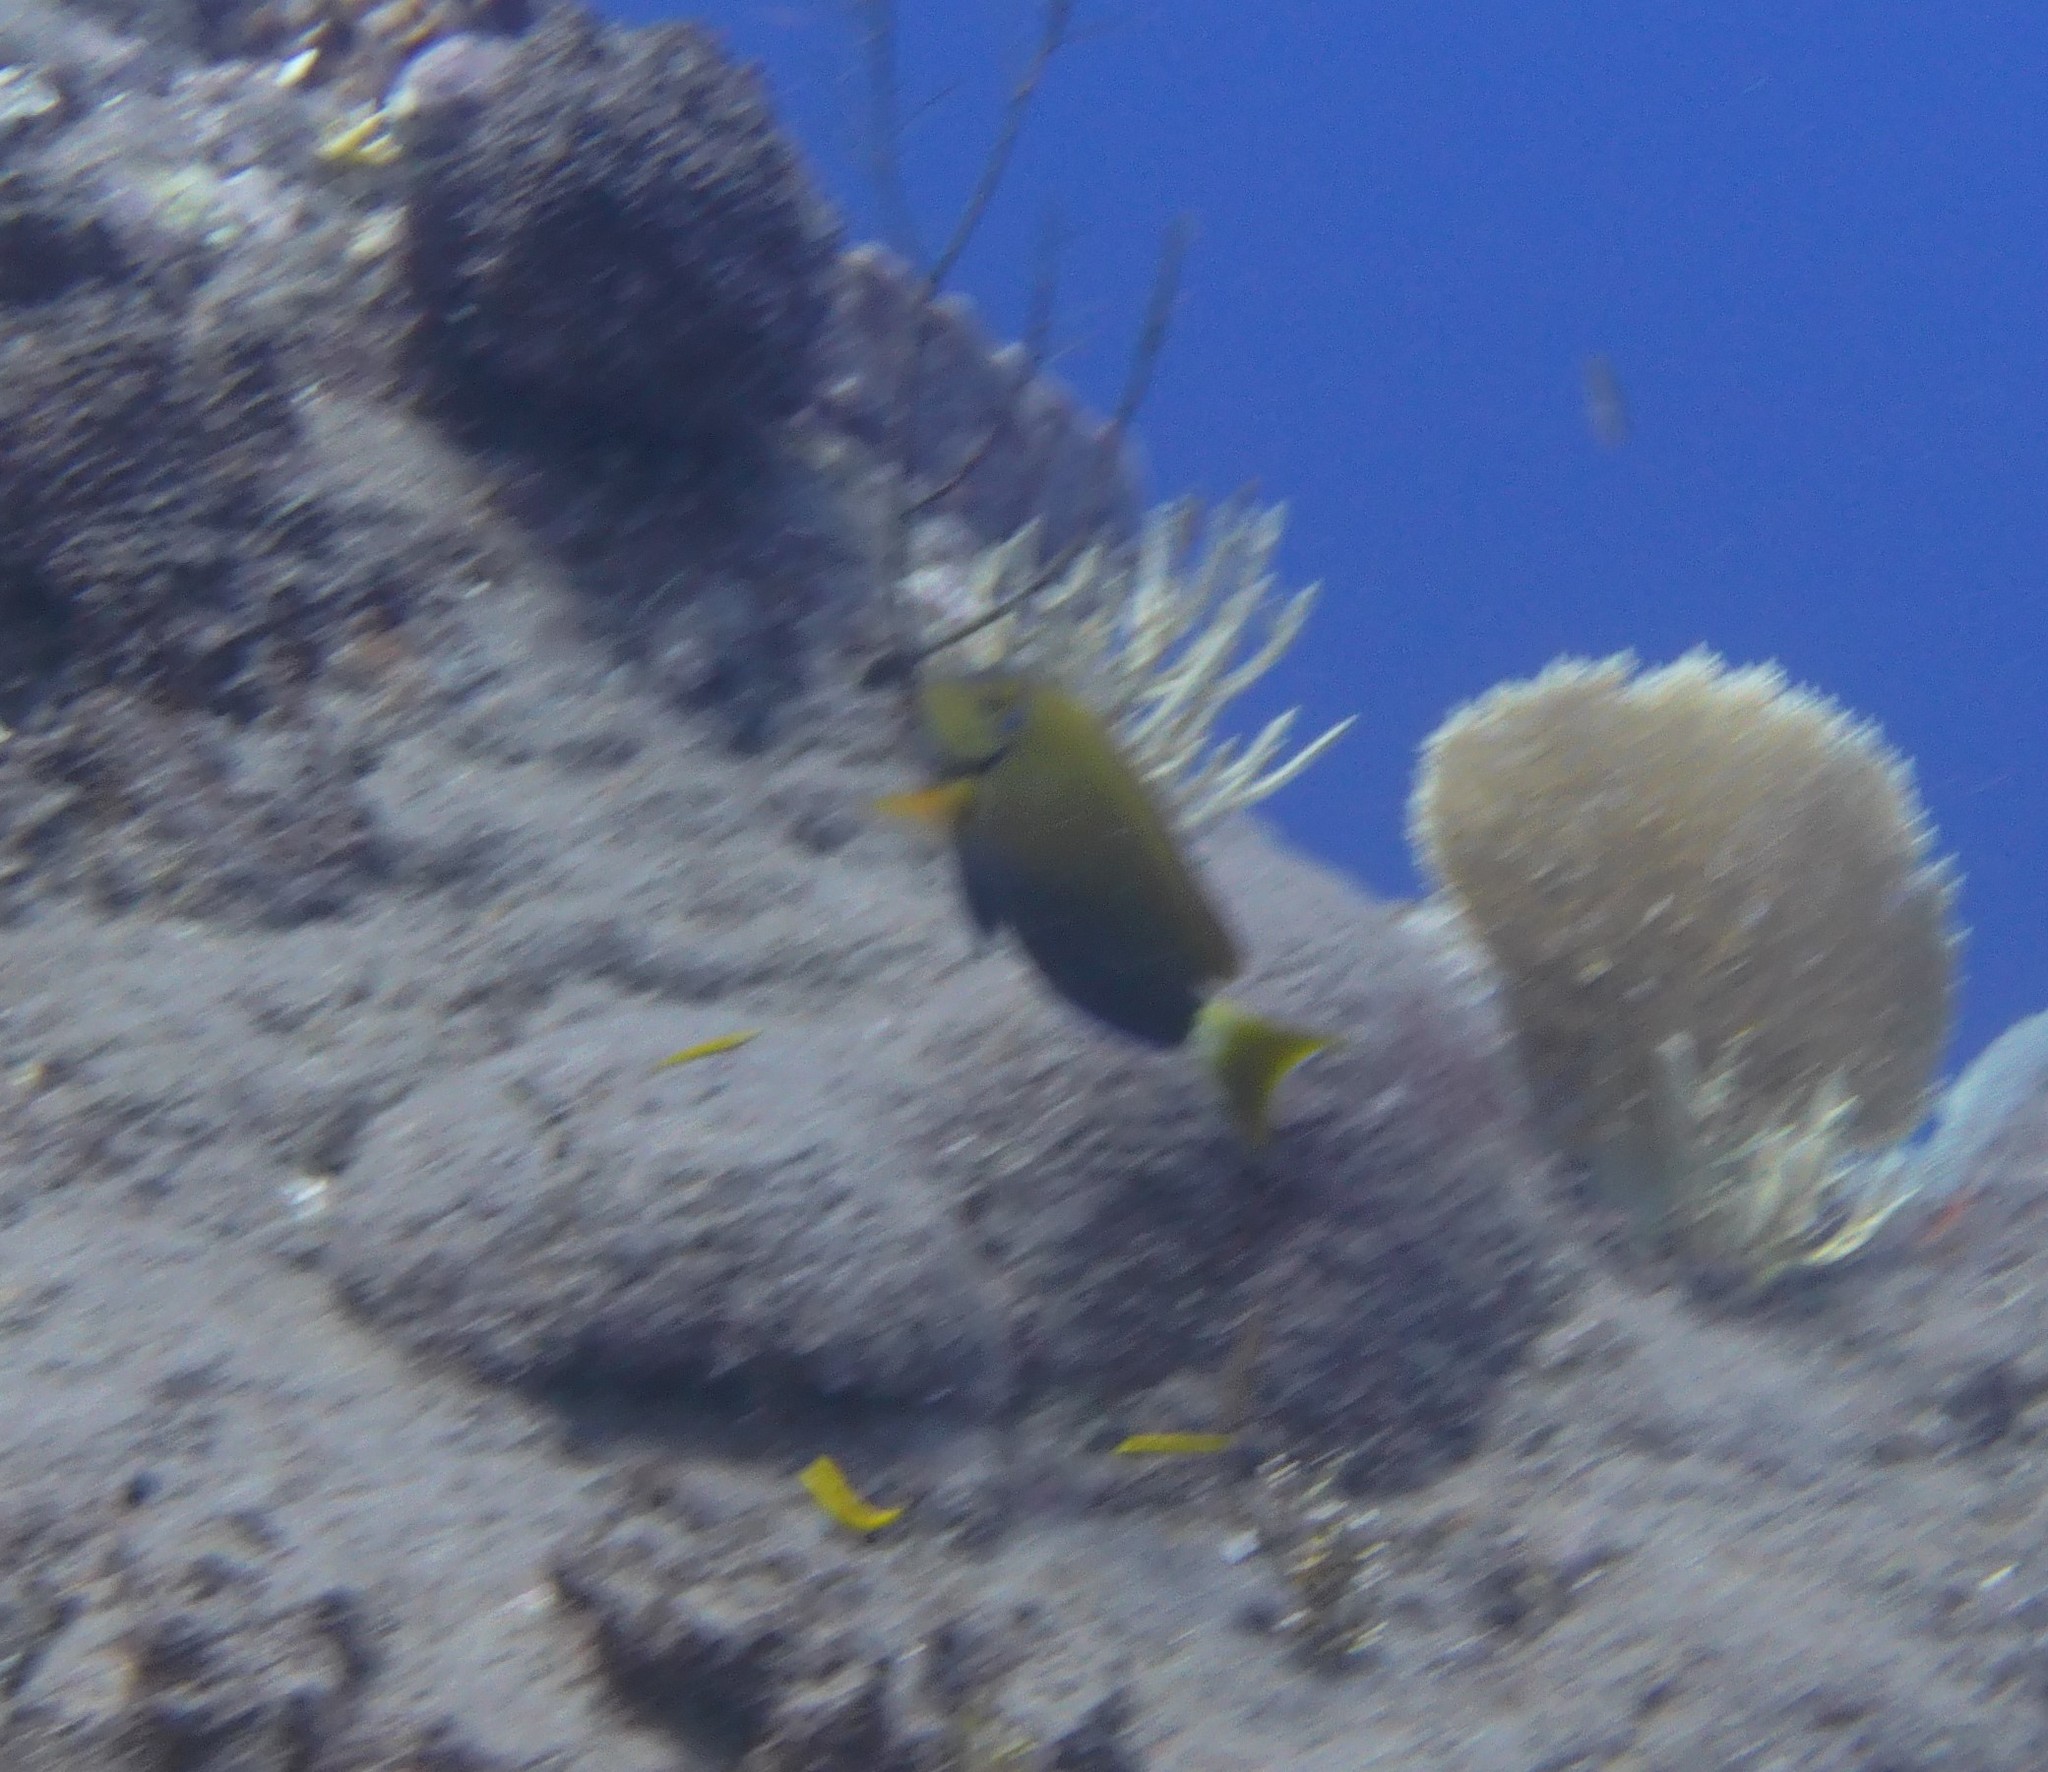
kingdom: Animalia
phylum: Chordata
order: Perciformes
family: Acanthuridae
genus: Acanthurus
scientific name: Acanthurus bahianus
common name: Ocean surgeon
